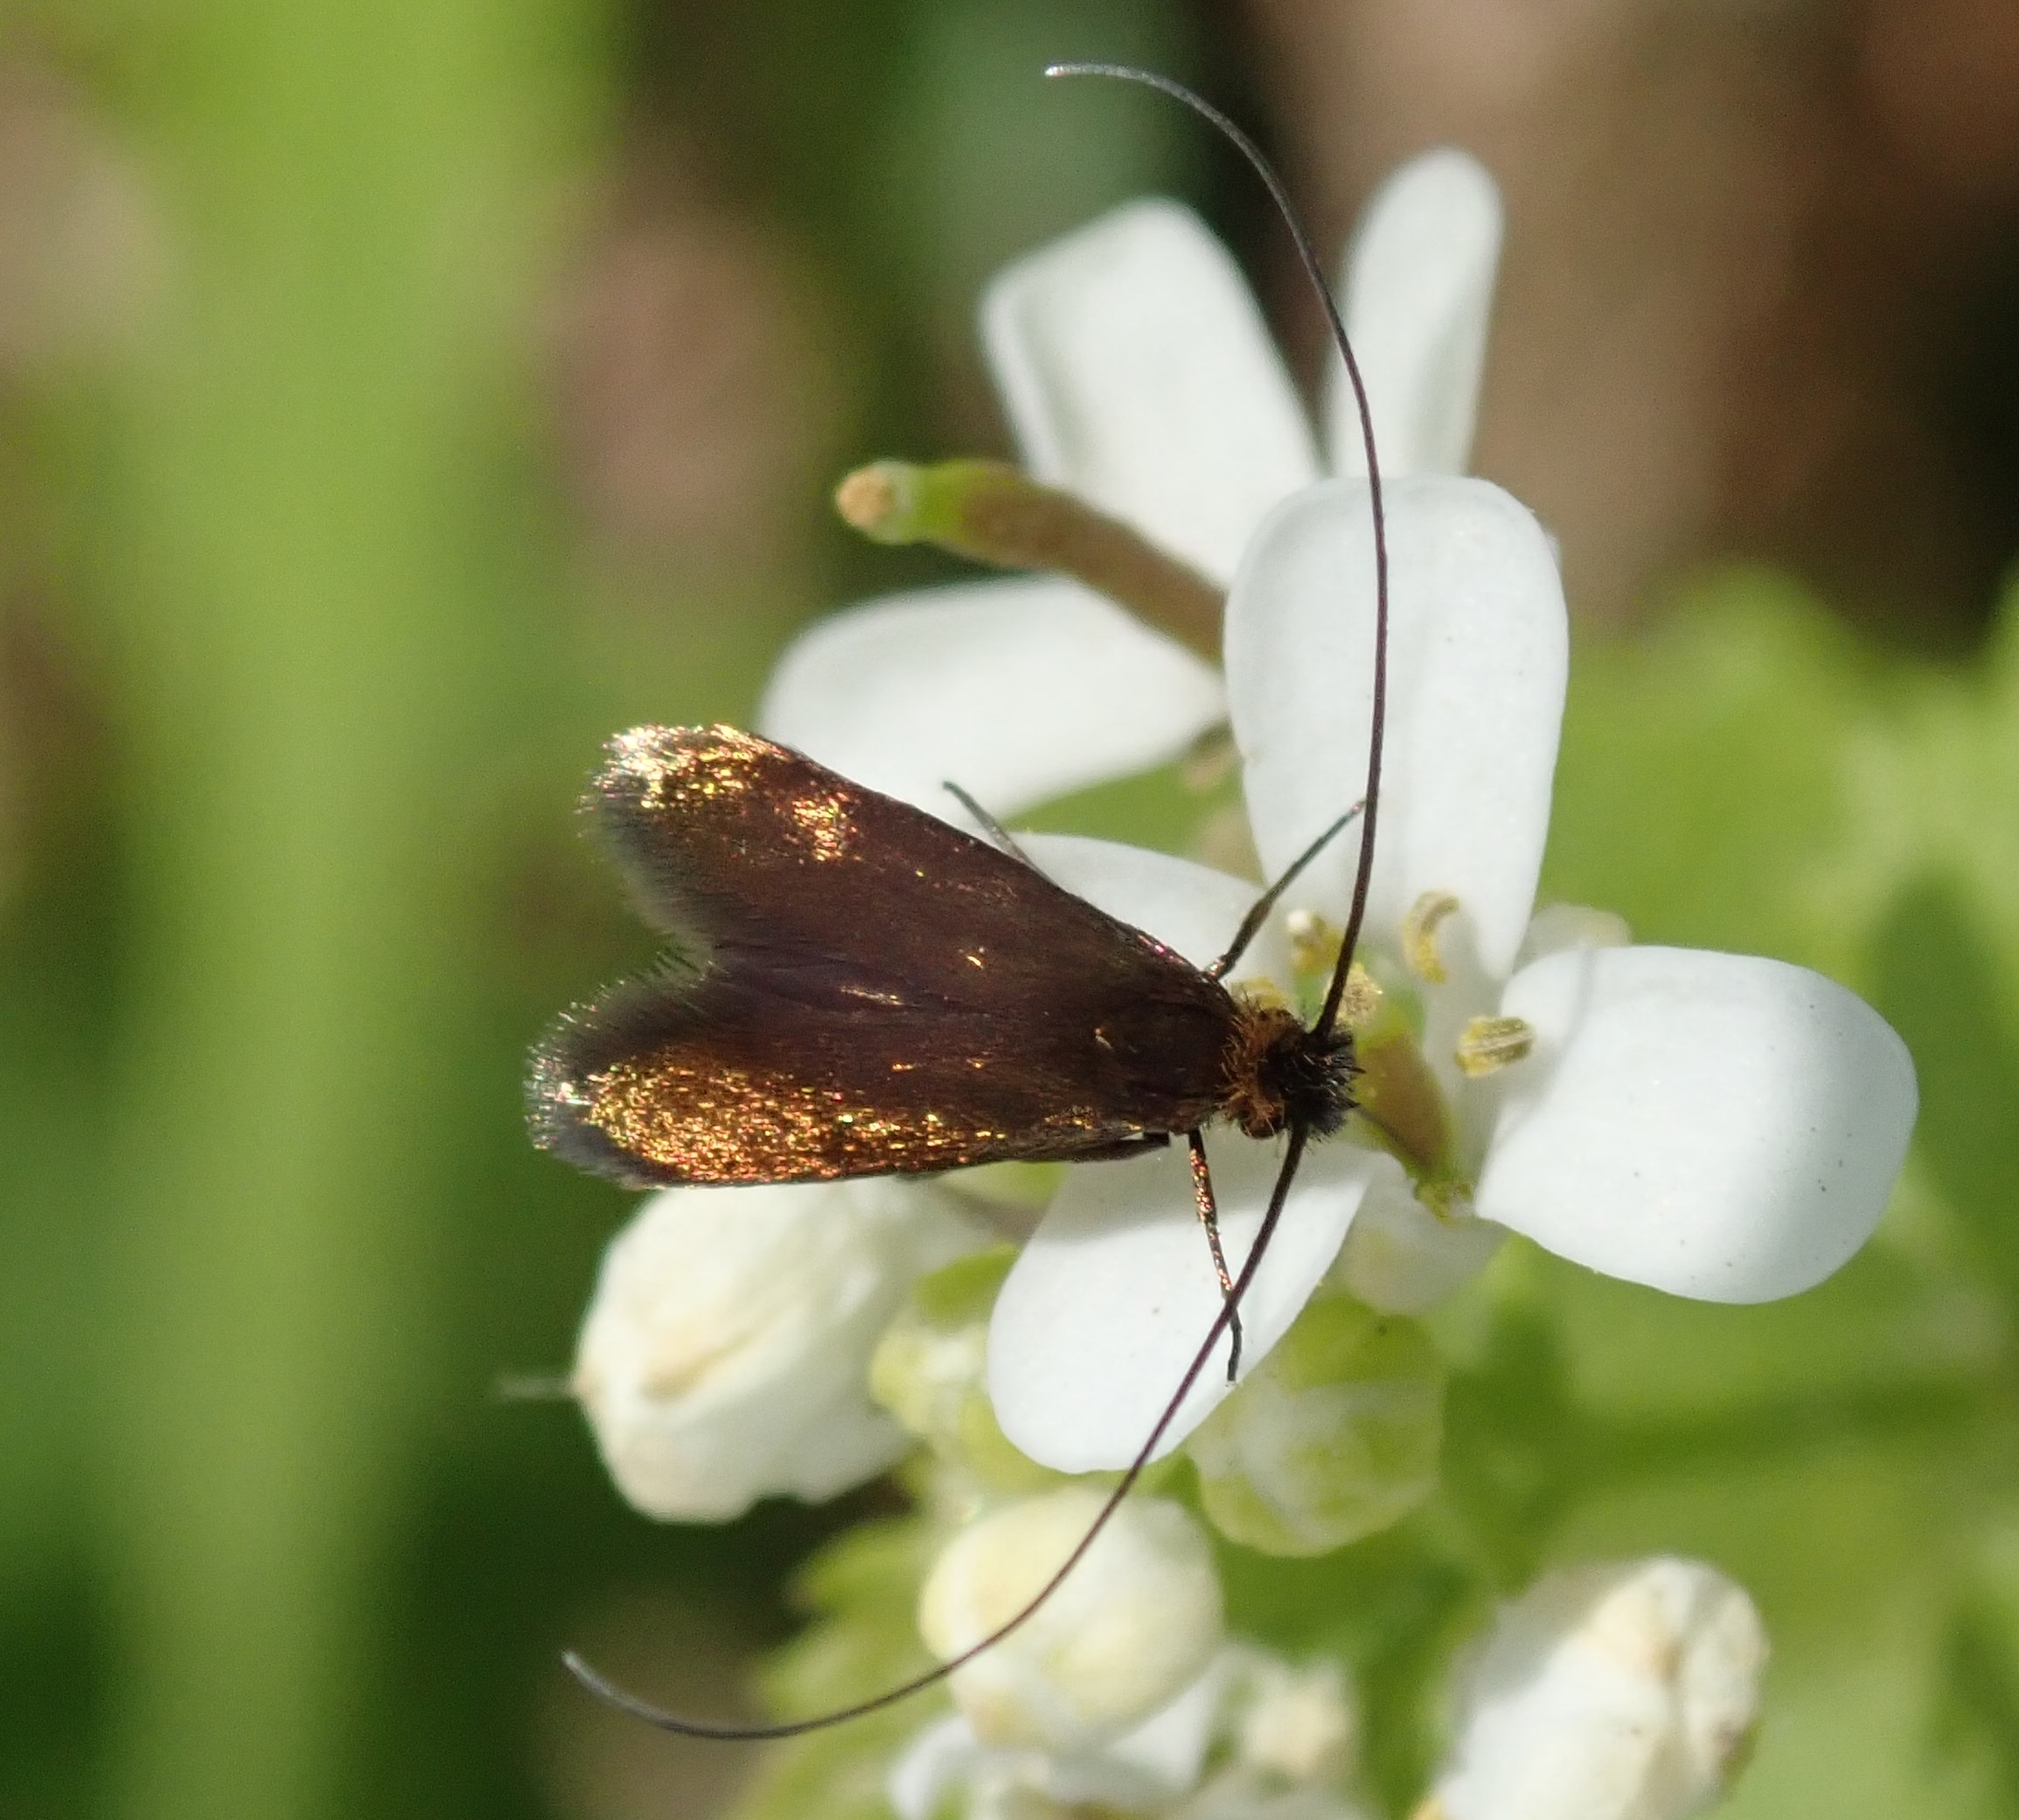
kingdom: Animalia
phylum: Arthropoda
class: Insecta
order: Lepidoptera
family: Adelidae
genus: Cauchas
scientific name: Cauchas rufimitrella
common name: Meadow long-horn
